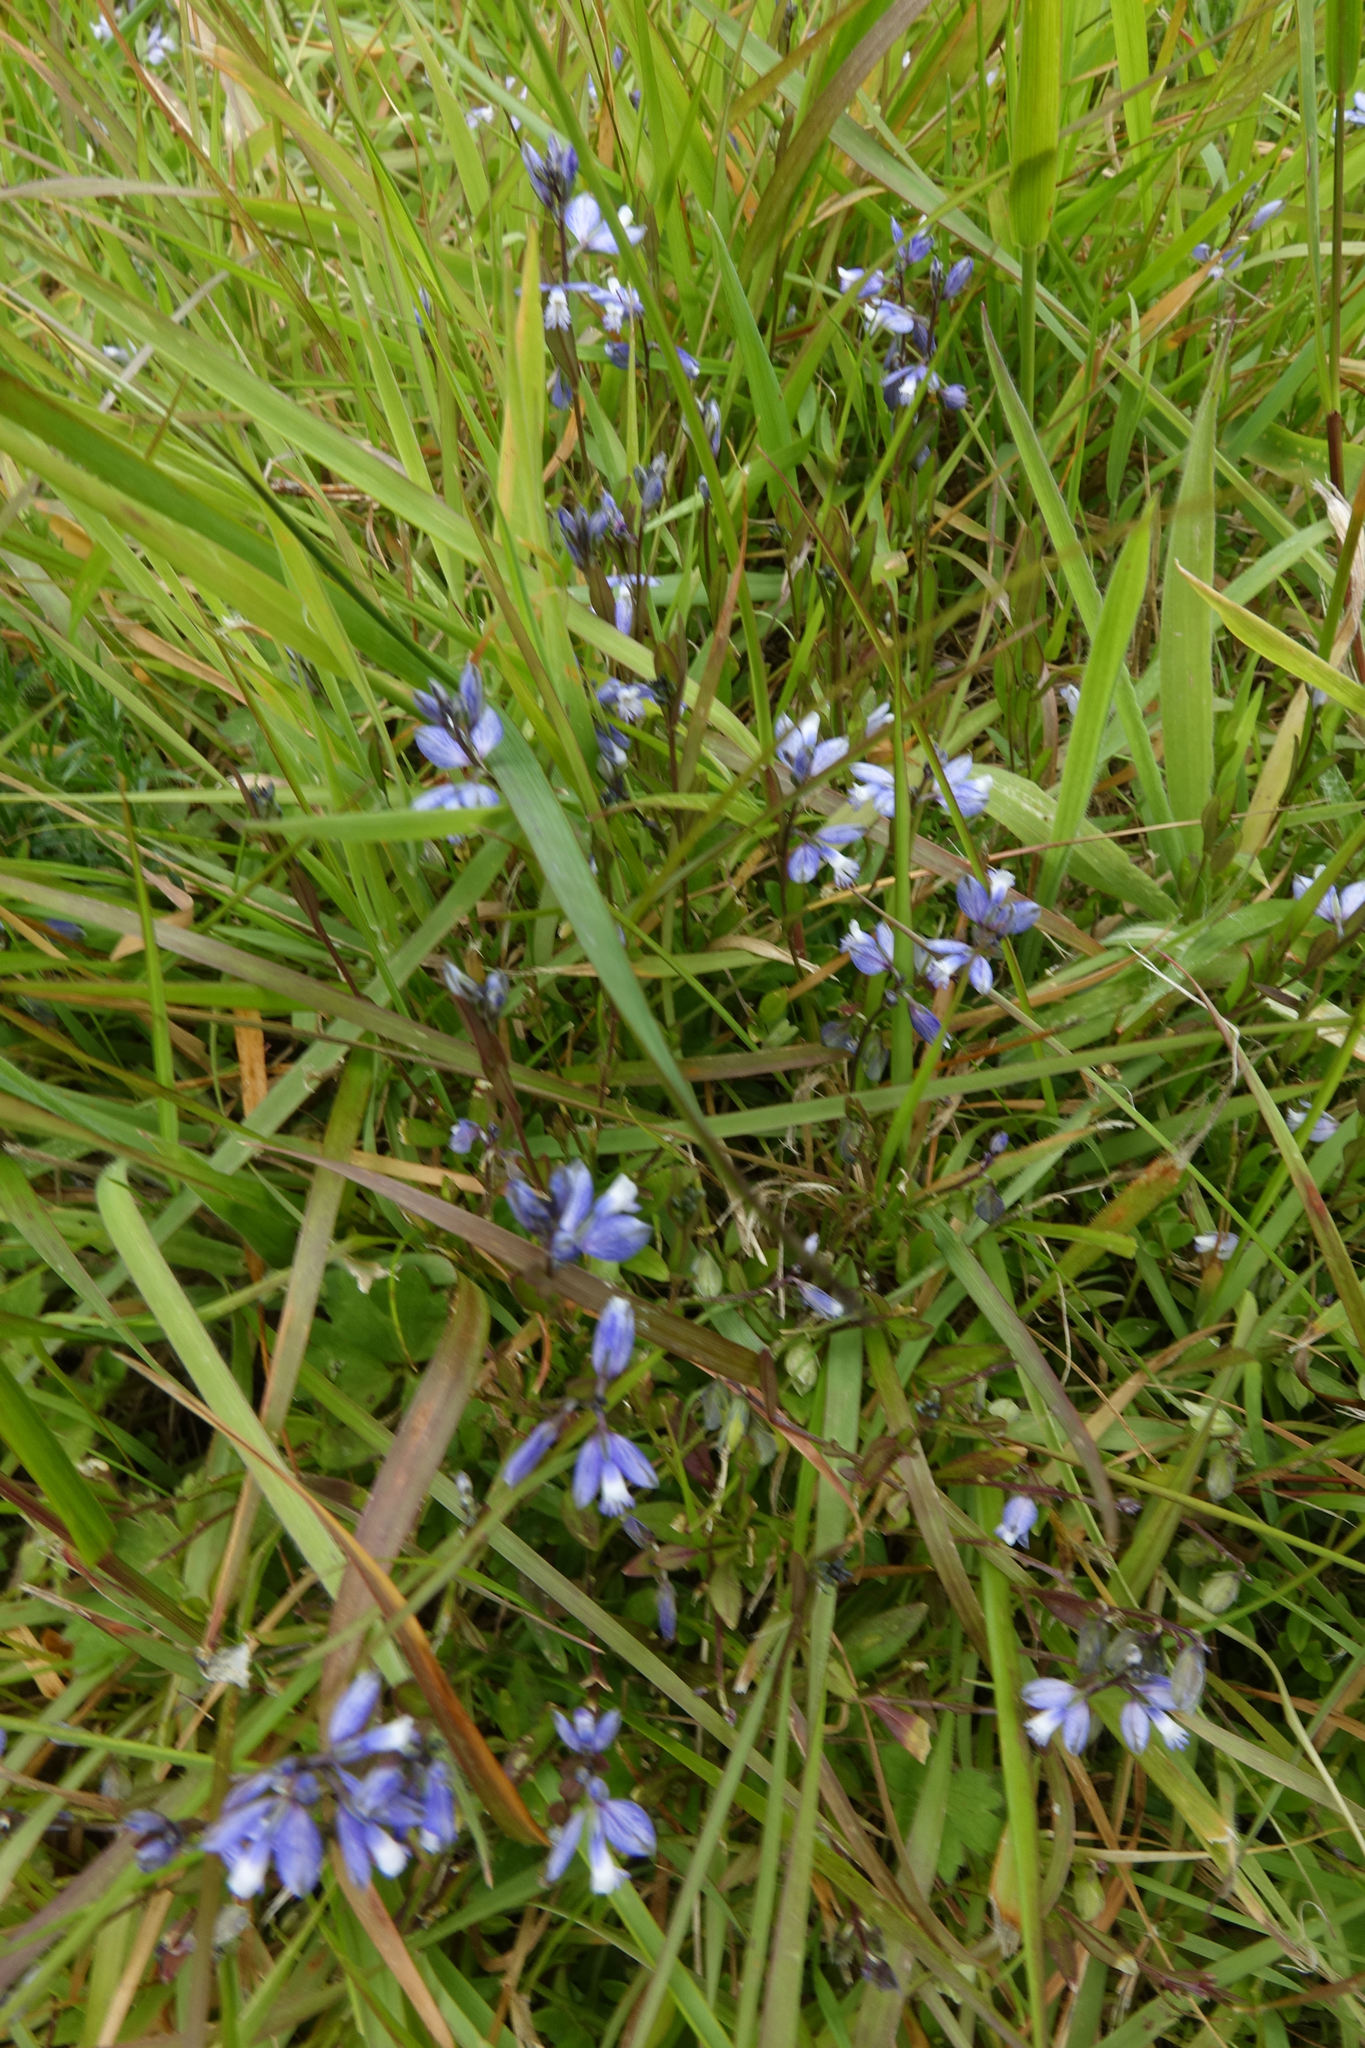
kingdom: Plantae
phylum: Tracheophyta
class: Magnoliopsida
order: Fabales
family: Polygalaceae
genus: Polygala
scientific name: Polygala serpyllifolia
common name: Heath milkwort
